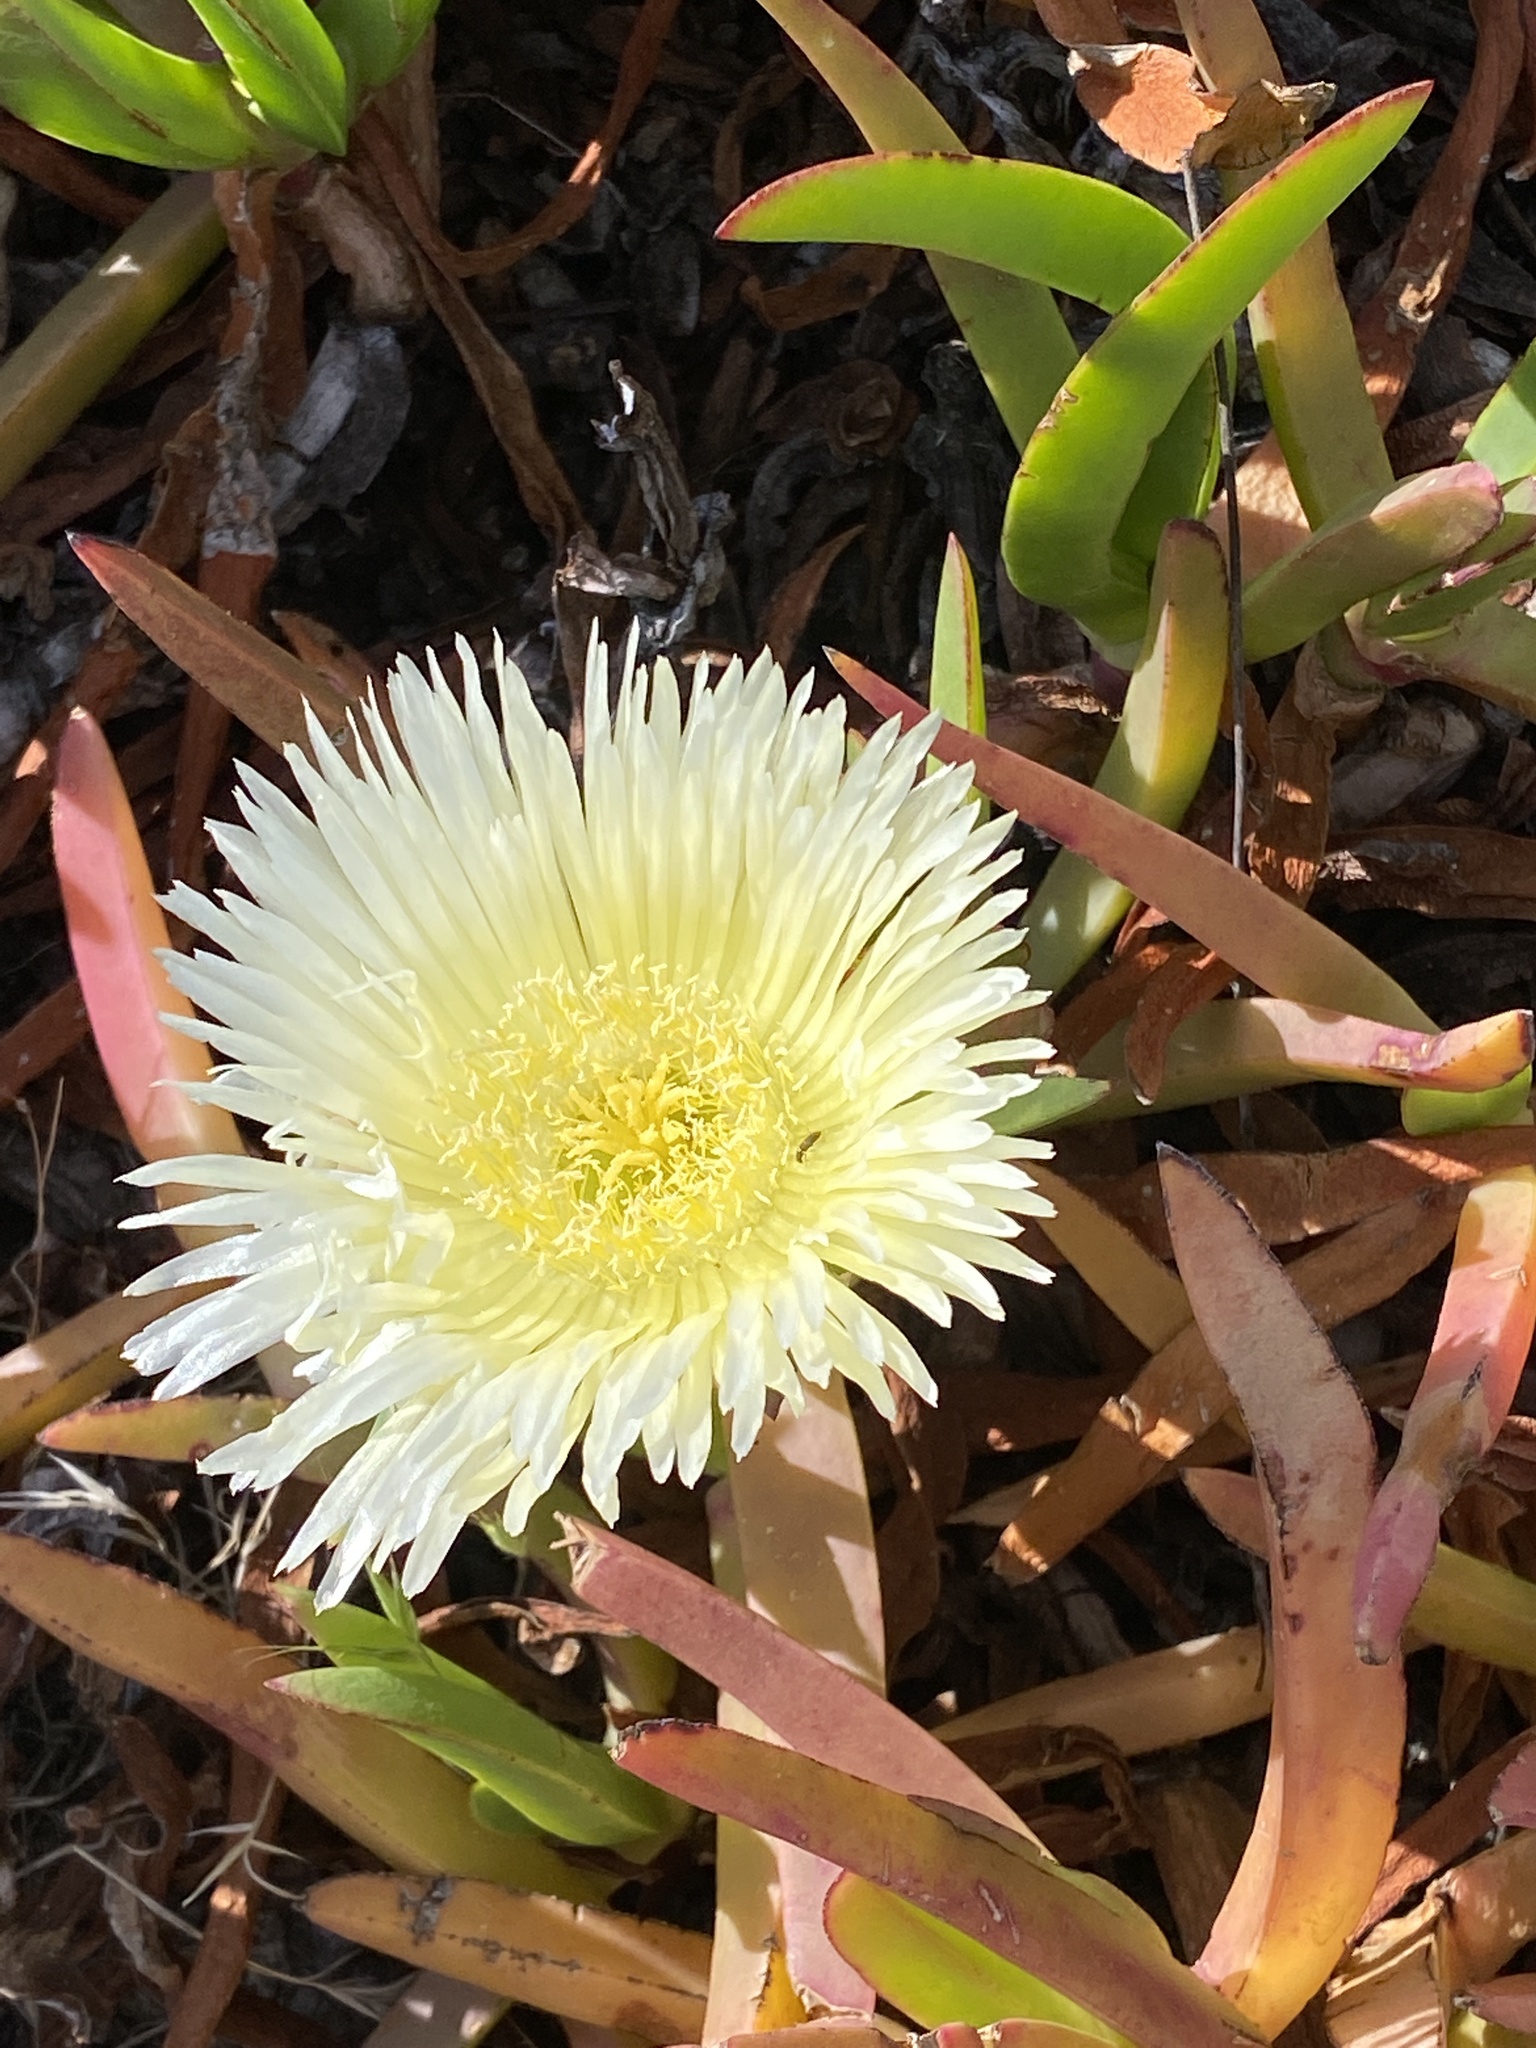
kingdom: Plantae
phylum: Tracheophyta
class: Magnoliopsida
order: Caryophyllales
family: Aizoaceae
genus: Carpobrotus
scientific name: Carpobrotus edulis
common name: Hottentot-fig
